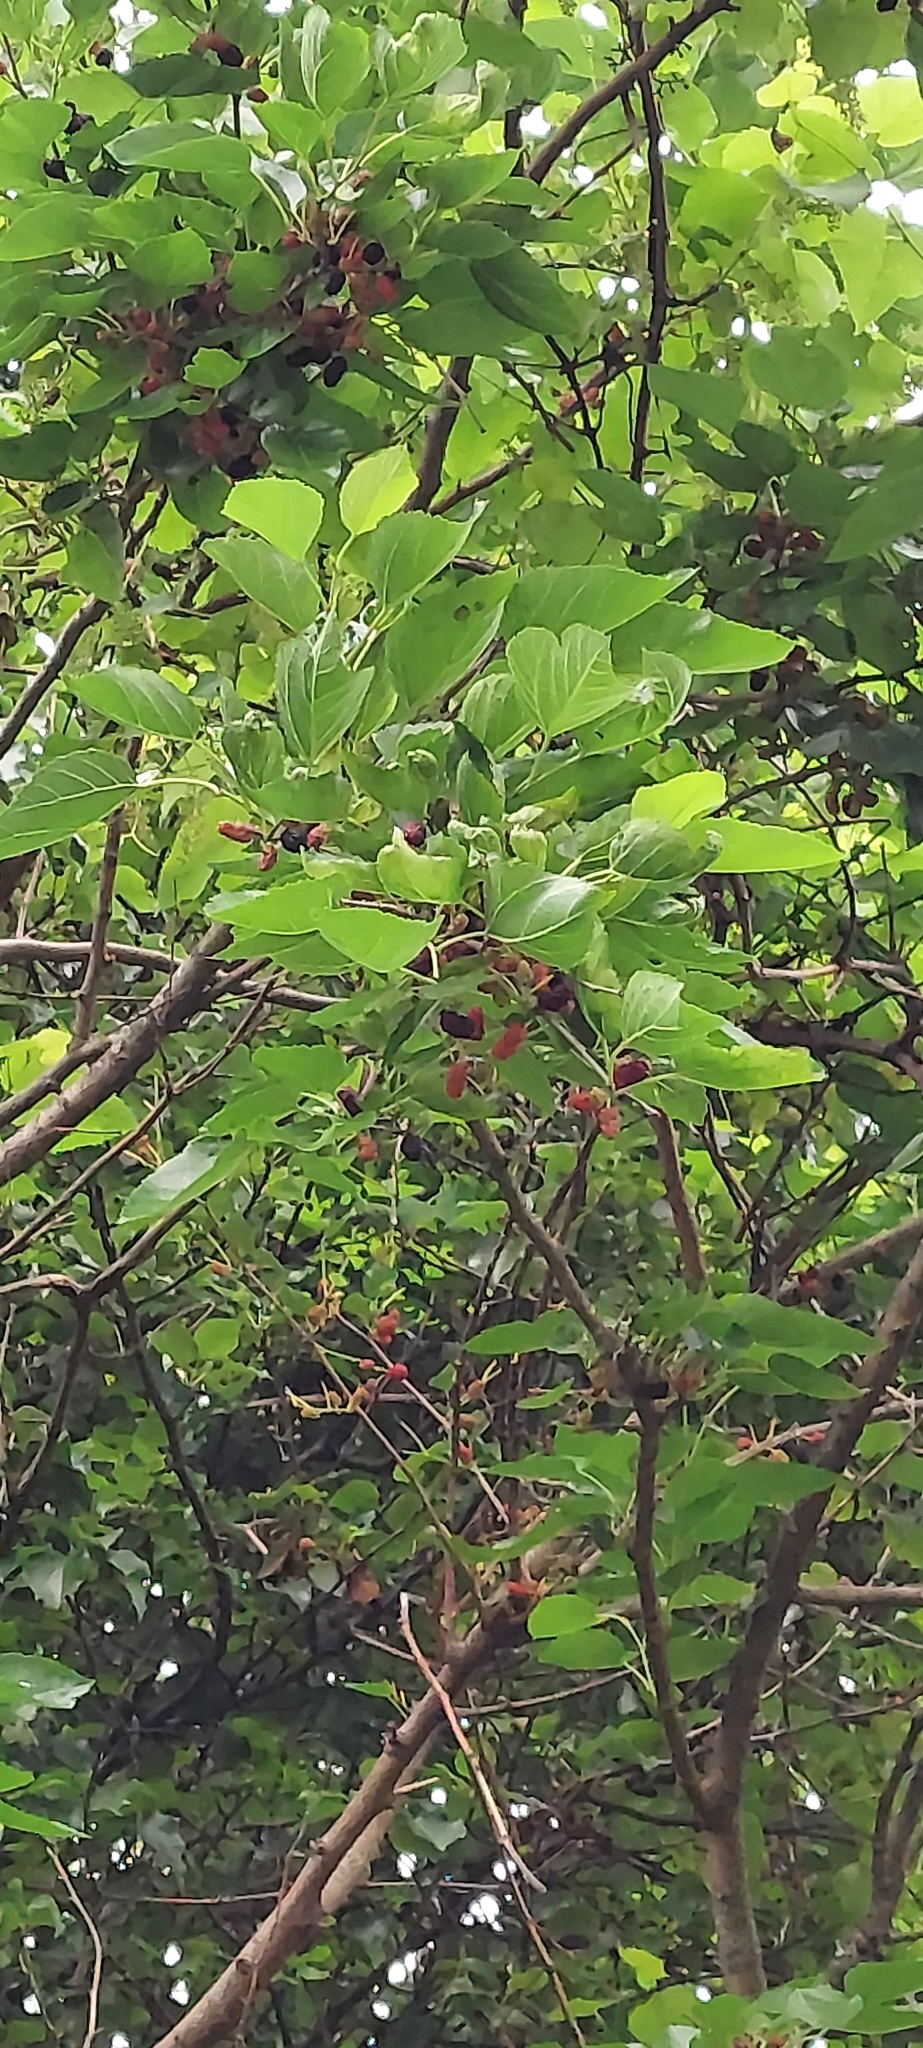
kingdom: Plantae
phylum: Tracheophyta
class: Magnoliopsida
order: Rosales
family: Moraceae
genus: Morus
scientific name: Morus nigra
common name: Black mulberry
